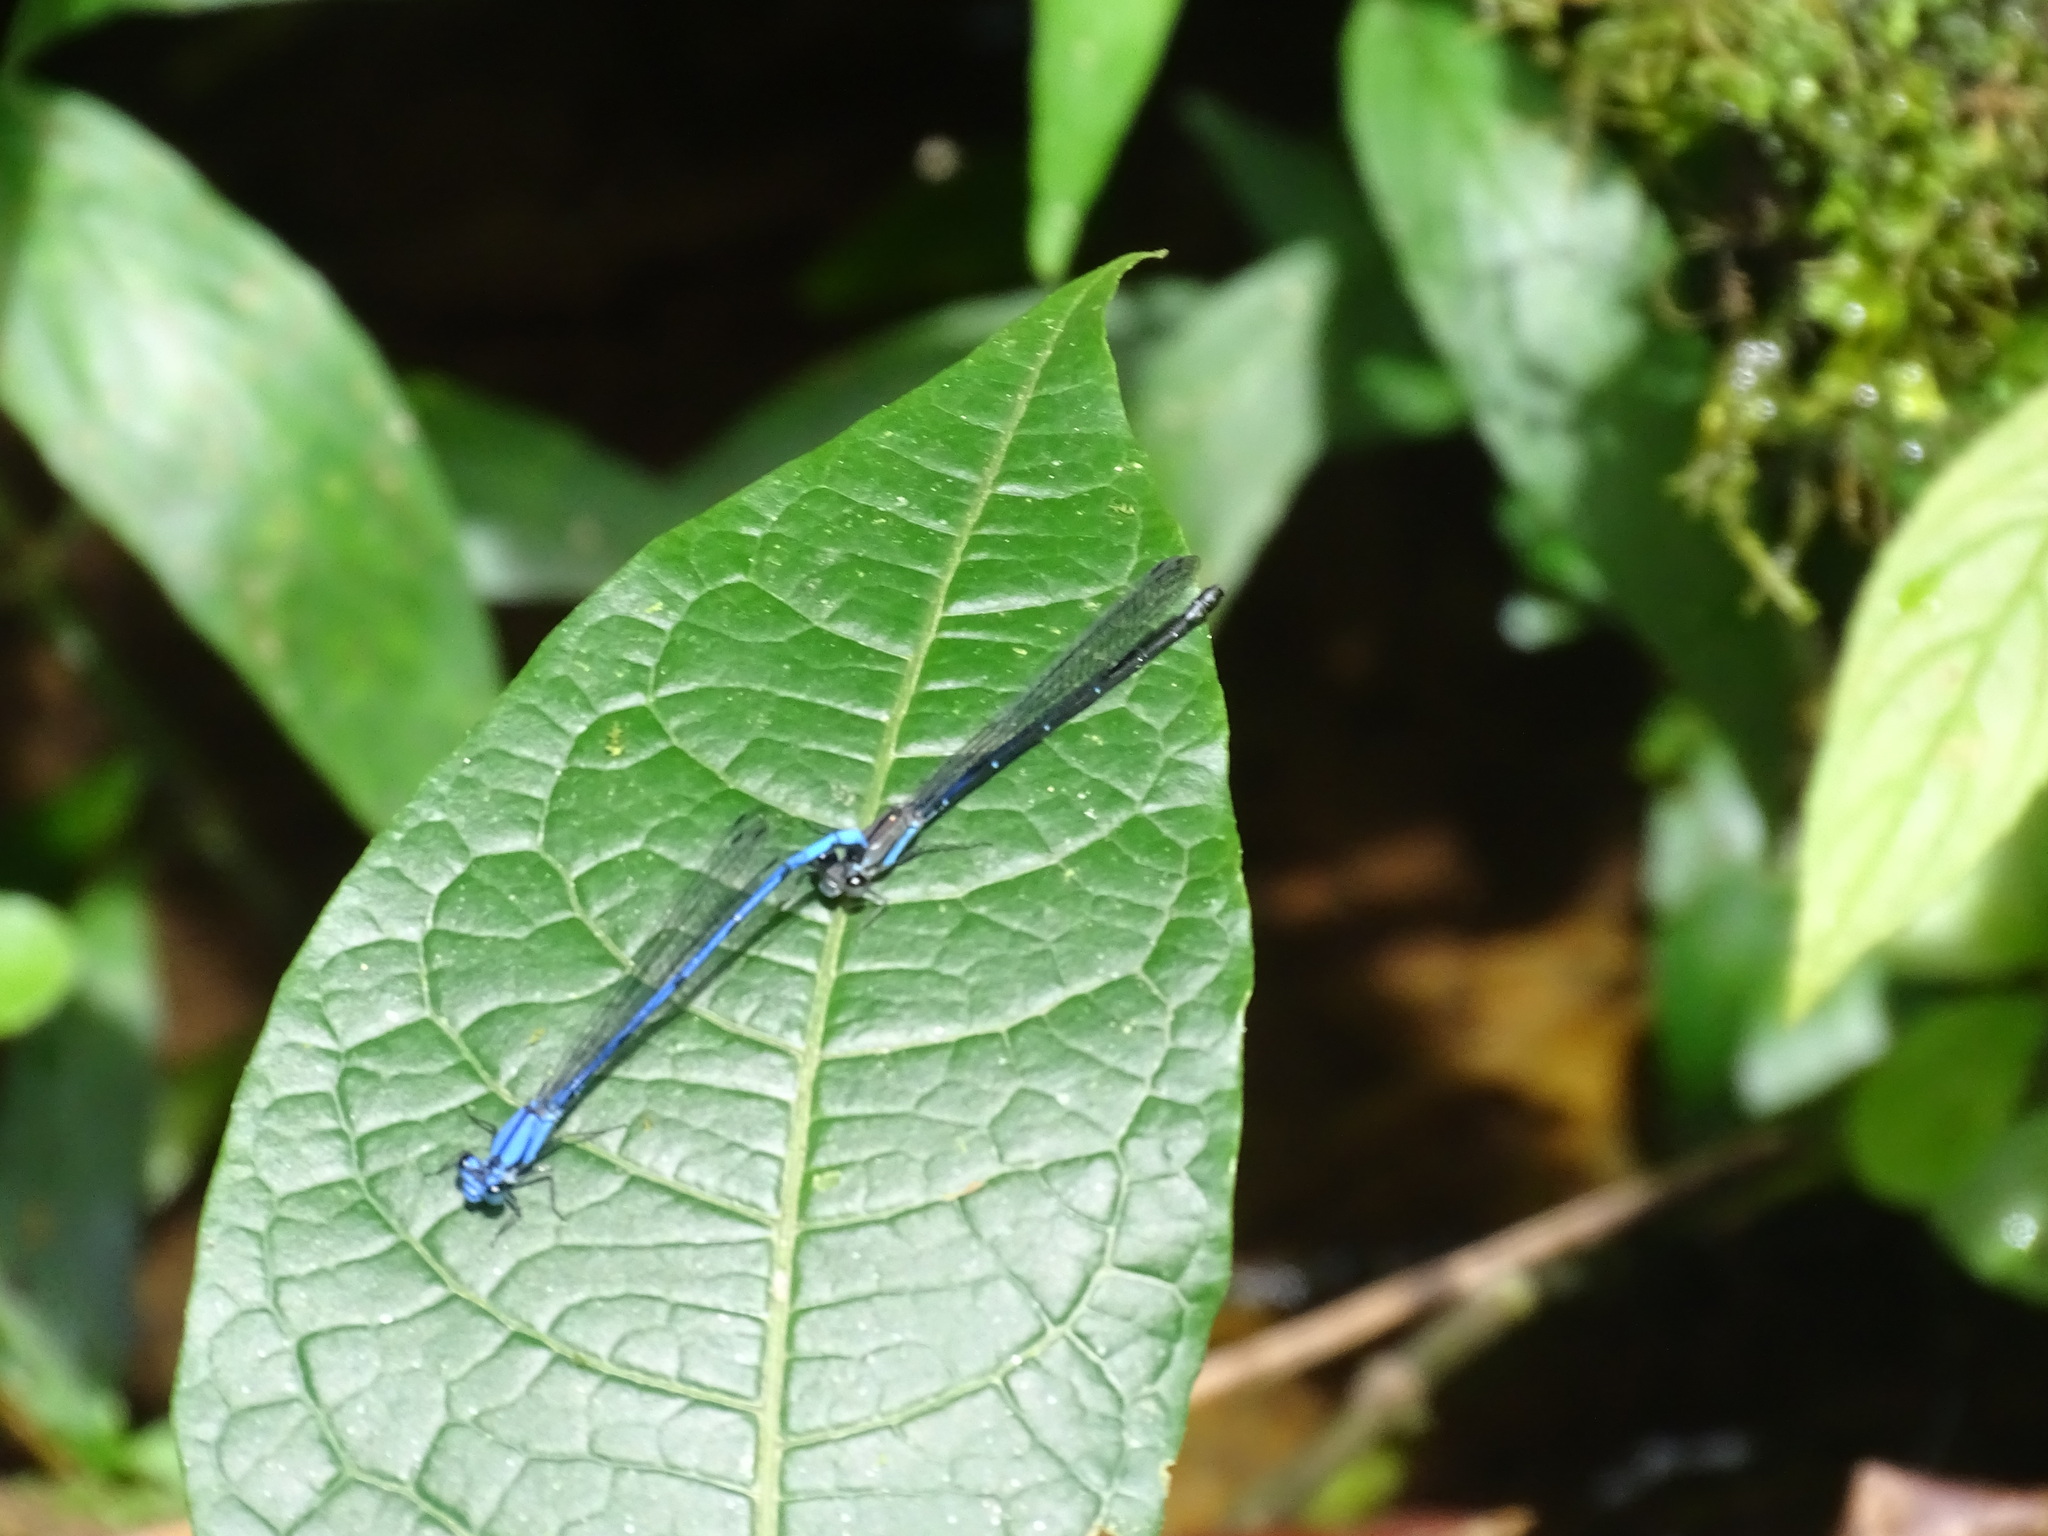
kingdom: Animalia
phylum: Arthropoda
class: Insecta
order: Odonata
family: Coenagrionidae
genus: Argia
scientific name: Argia medullaris
